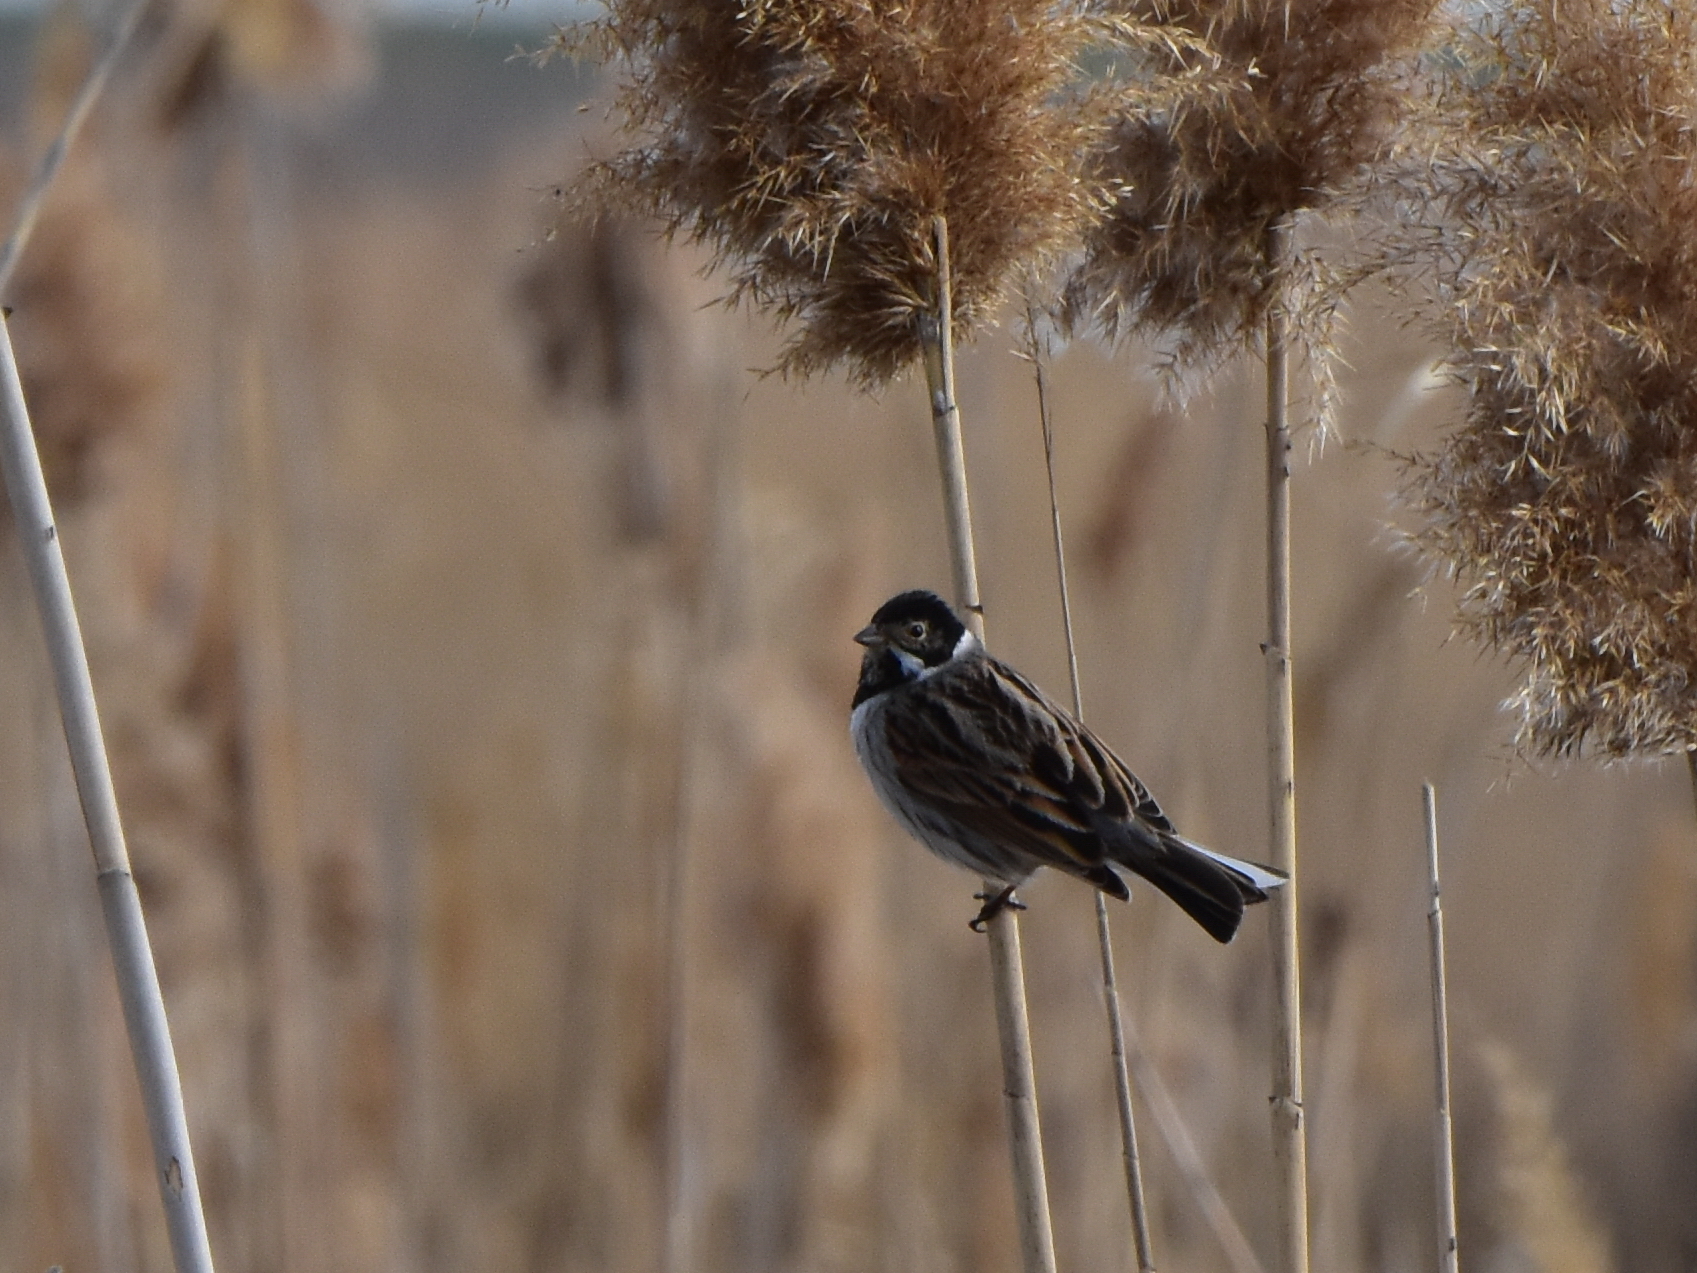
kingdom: Animalia
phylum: Chordata
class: Aves
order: Passeriformes
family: Emberizidae
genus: Emberiza
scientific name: Emberiza schoeniclus
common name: Reed bunting
